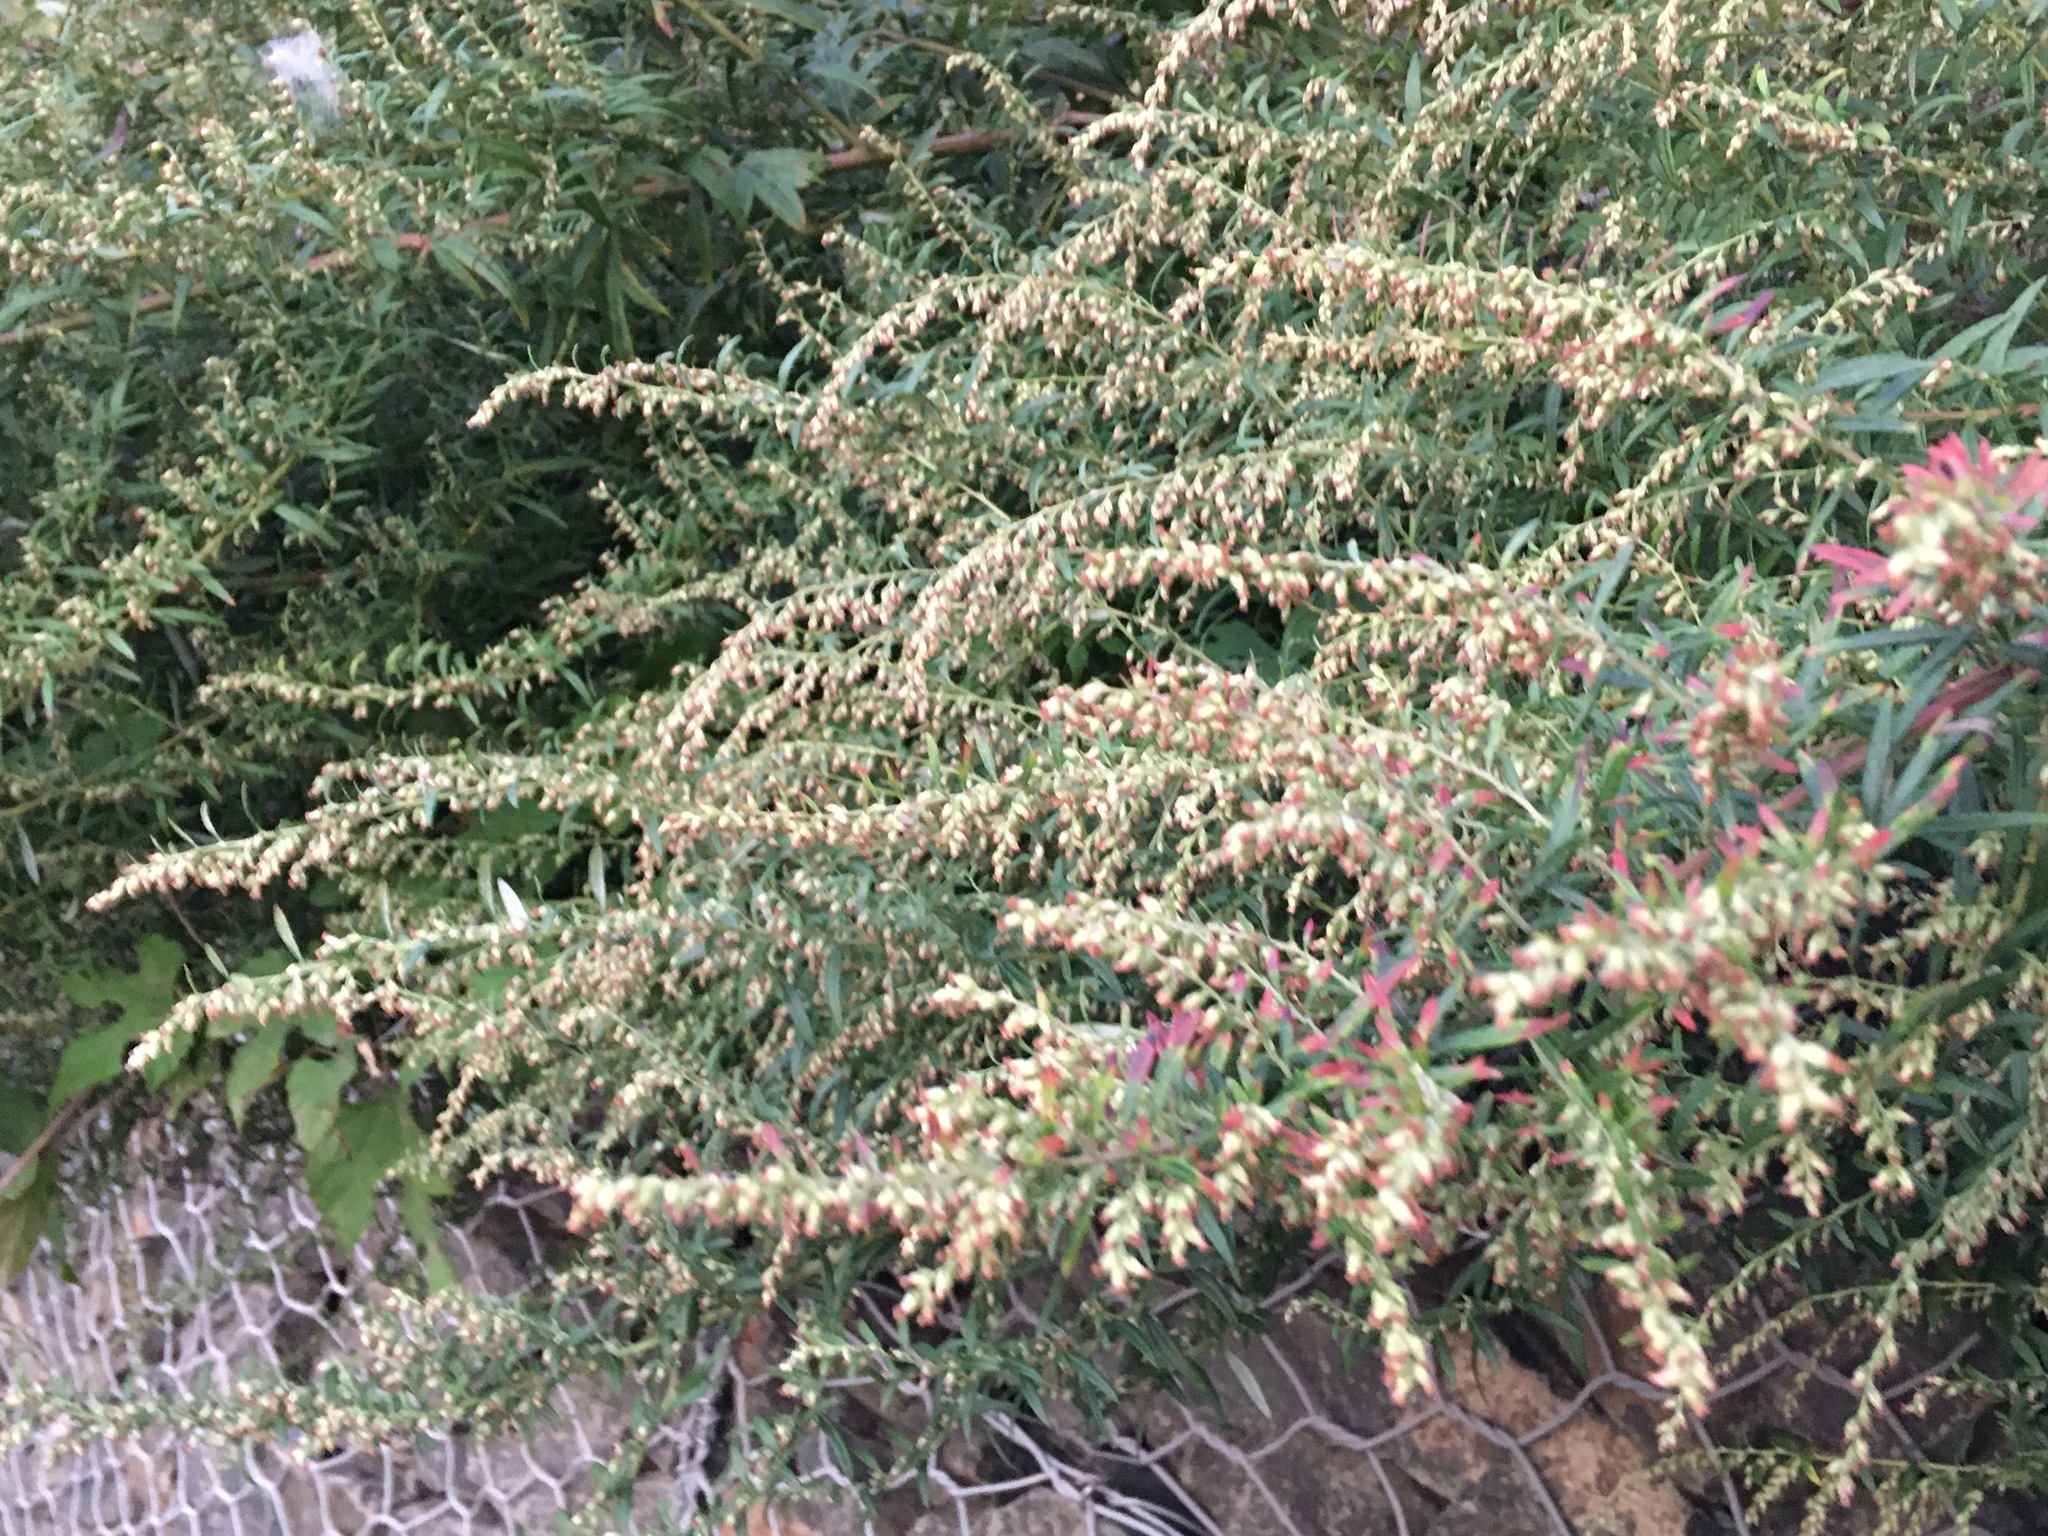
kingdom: Plantae
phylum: Tracheophyta
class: Magnoliopsida
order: Asterales
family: Asteraceae
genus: Artemisia
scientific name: Artemisia vulgaris
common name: Mugwort
